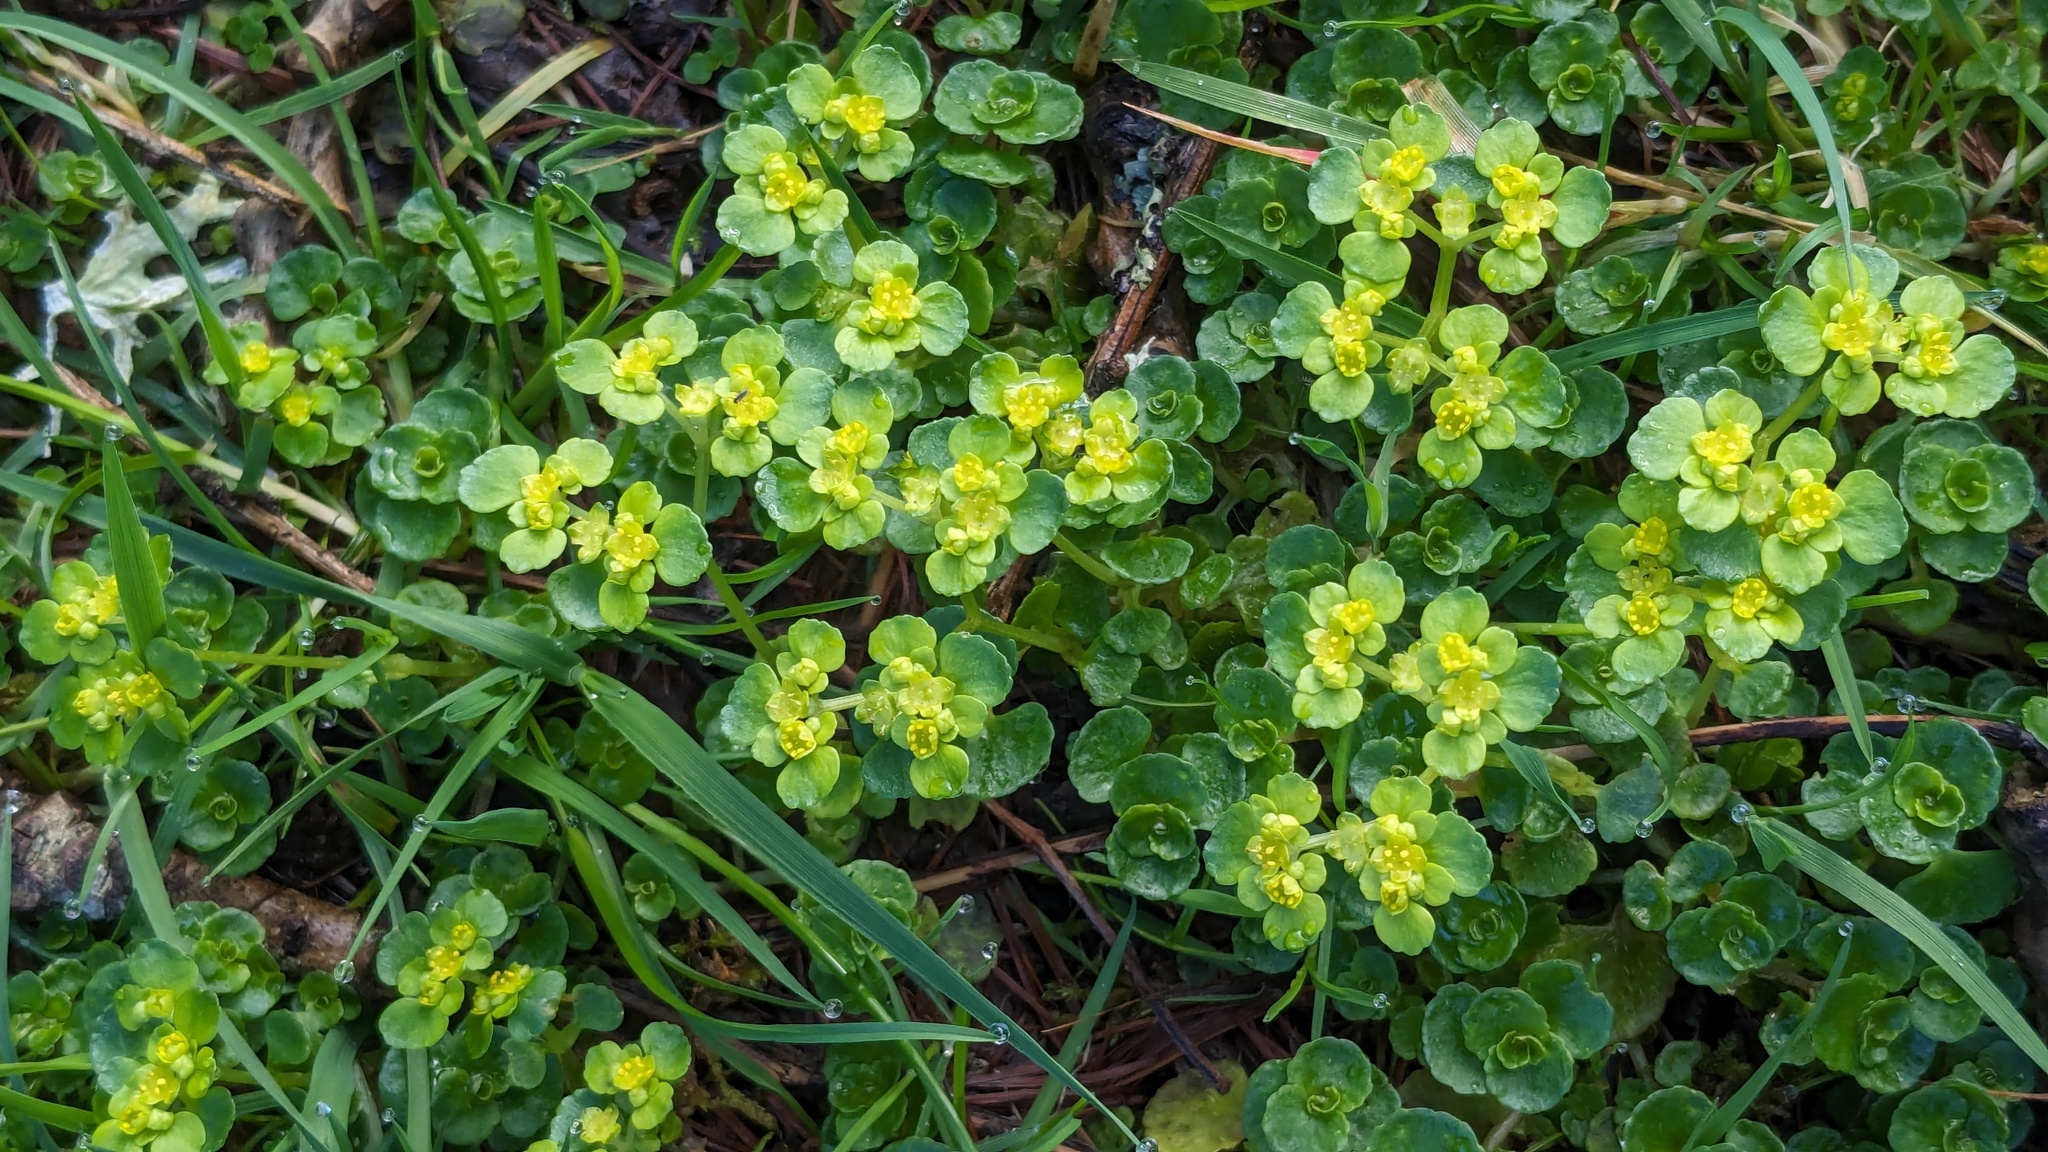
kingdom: Plantae
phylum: Tracheophyta
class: Magnoliopsida
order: Saxifragales
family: Saxifragaceae
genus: Chrysosplenium
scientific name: Chrysosplenium oppositifolium
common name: Opposite-leaved golden-saxifrage
